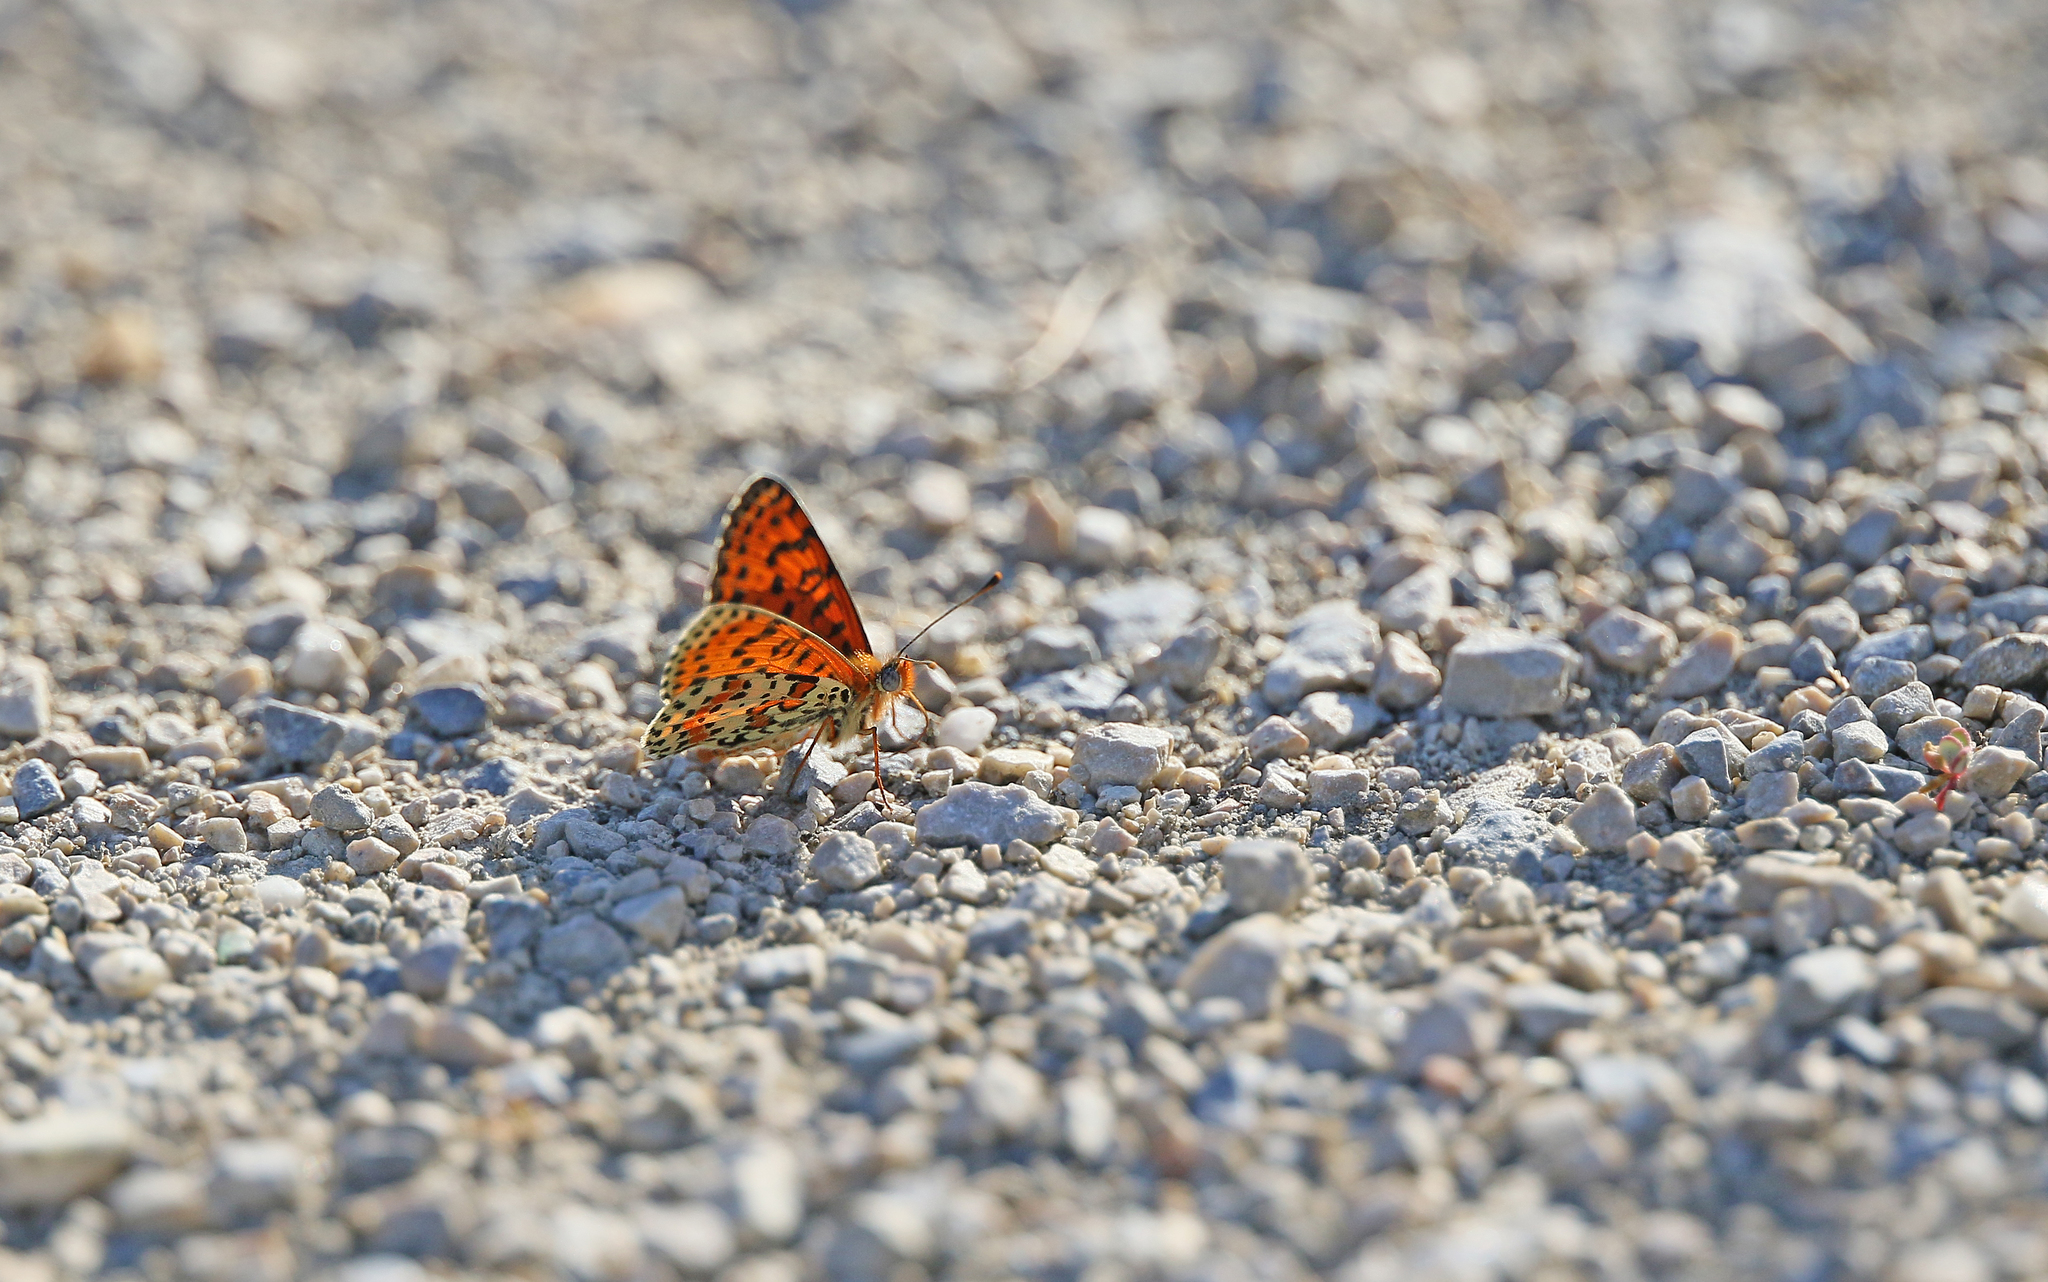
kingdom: Animalia
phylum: Arthropoda
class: Insecta
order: Lepidoptera
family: Nymphalidae
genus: Melitaea
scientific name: Melitaea didyma
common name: Spotted fritillary
